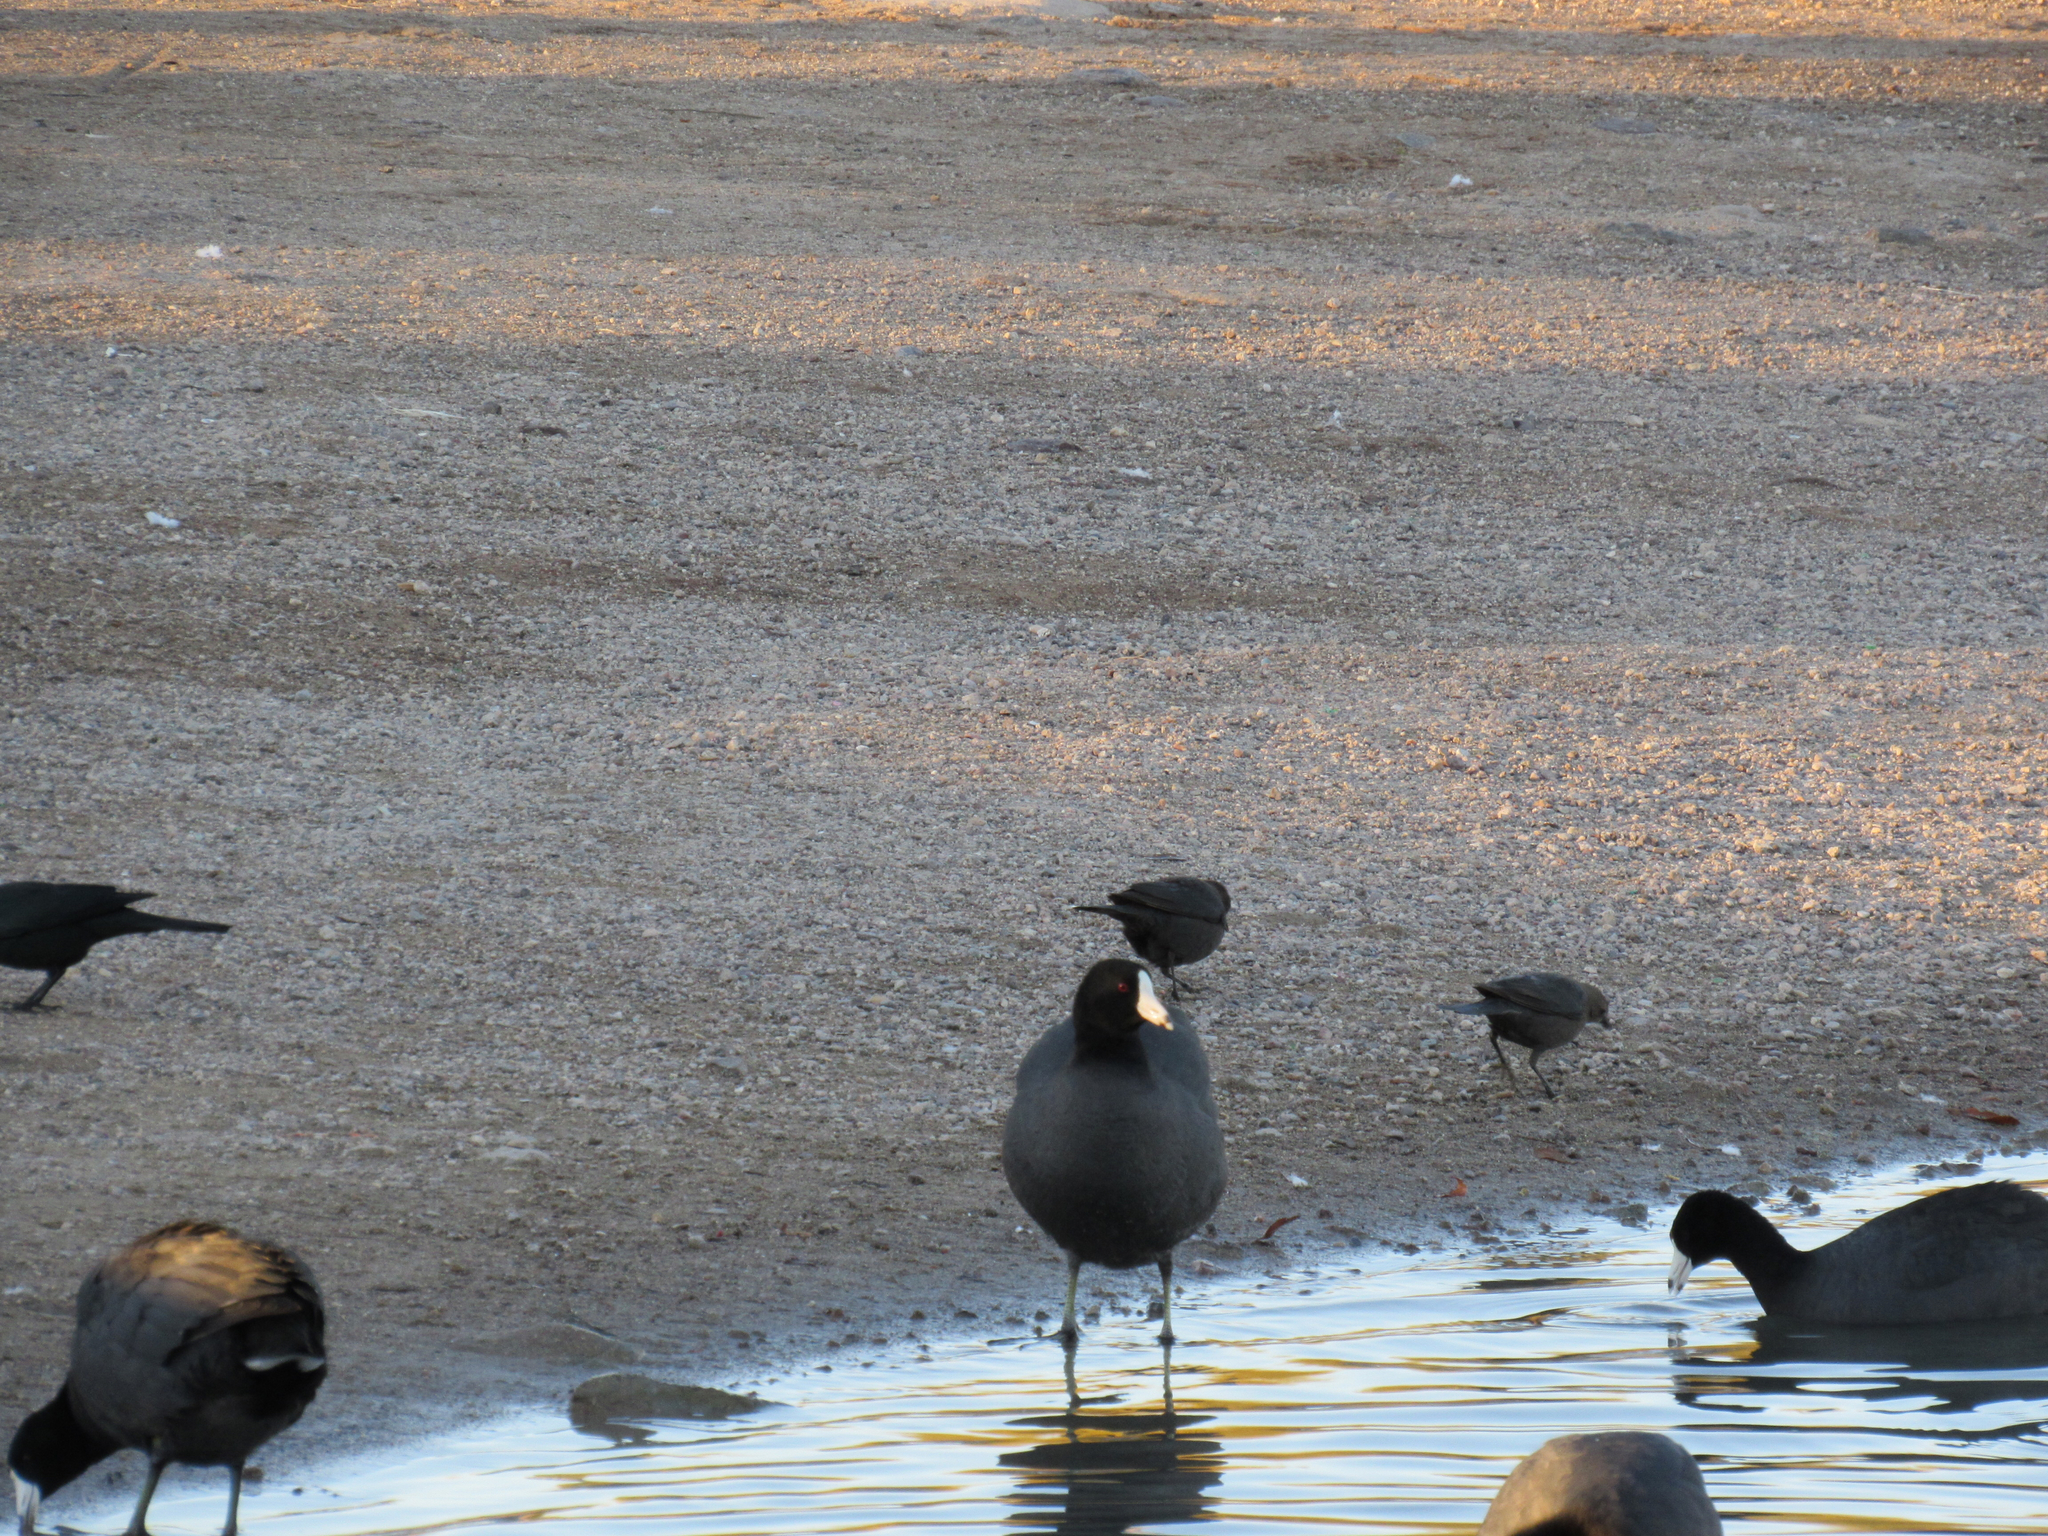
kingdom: Animalia
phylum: Chordata
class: Aves
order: Gruiformes
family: Rallidae
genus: Fulica
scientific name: Fulica americana
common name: American coot
